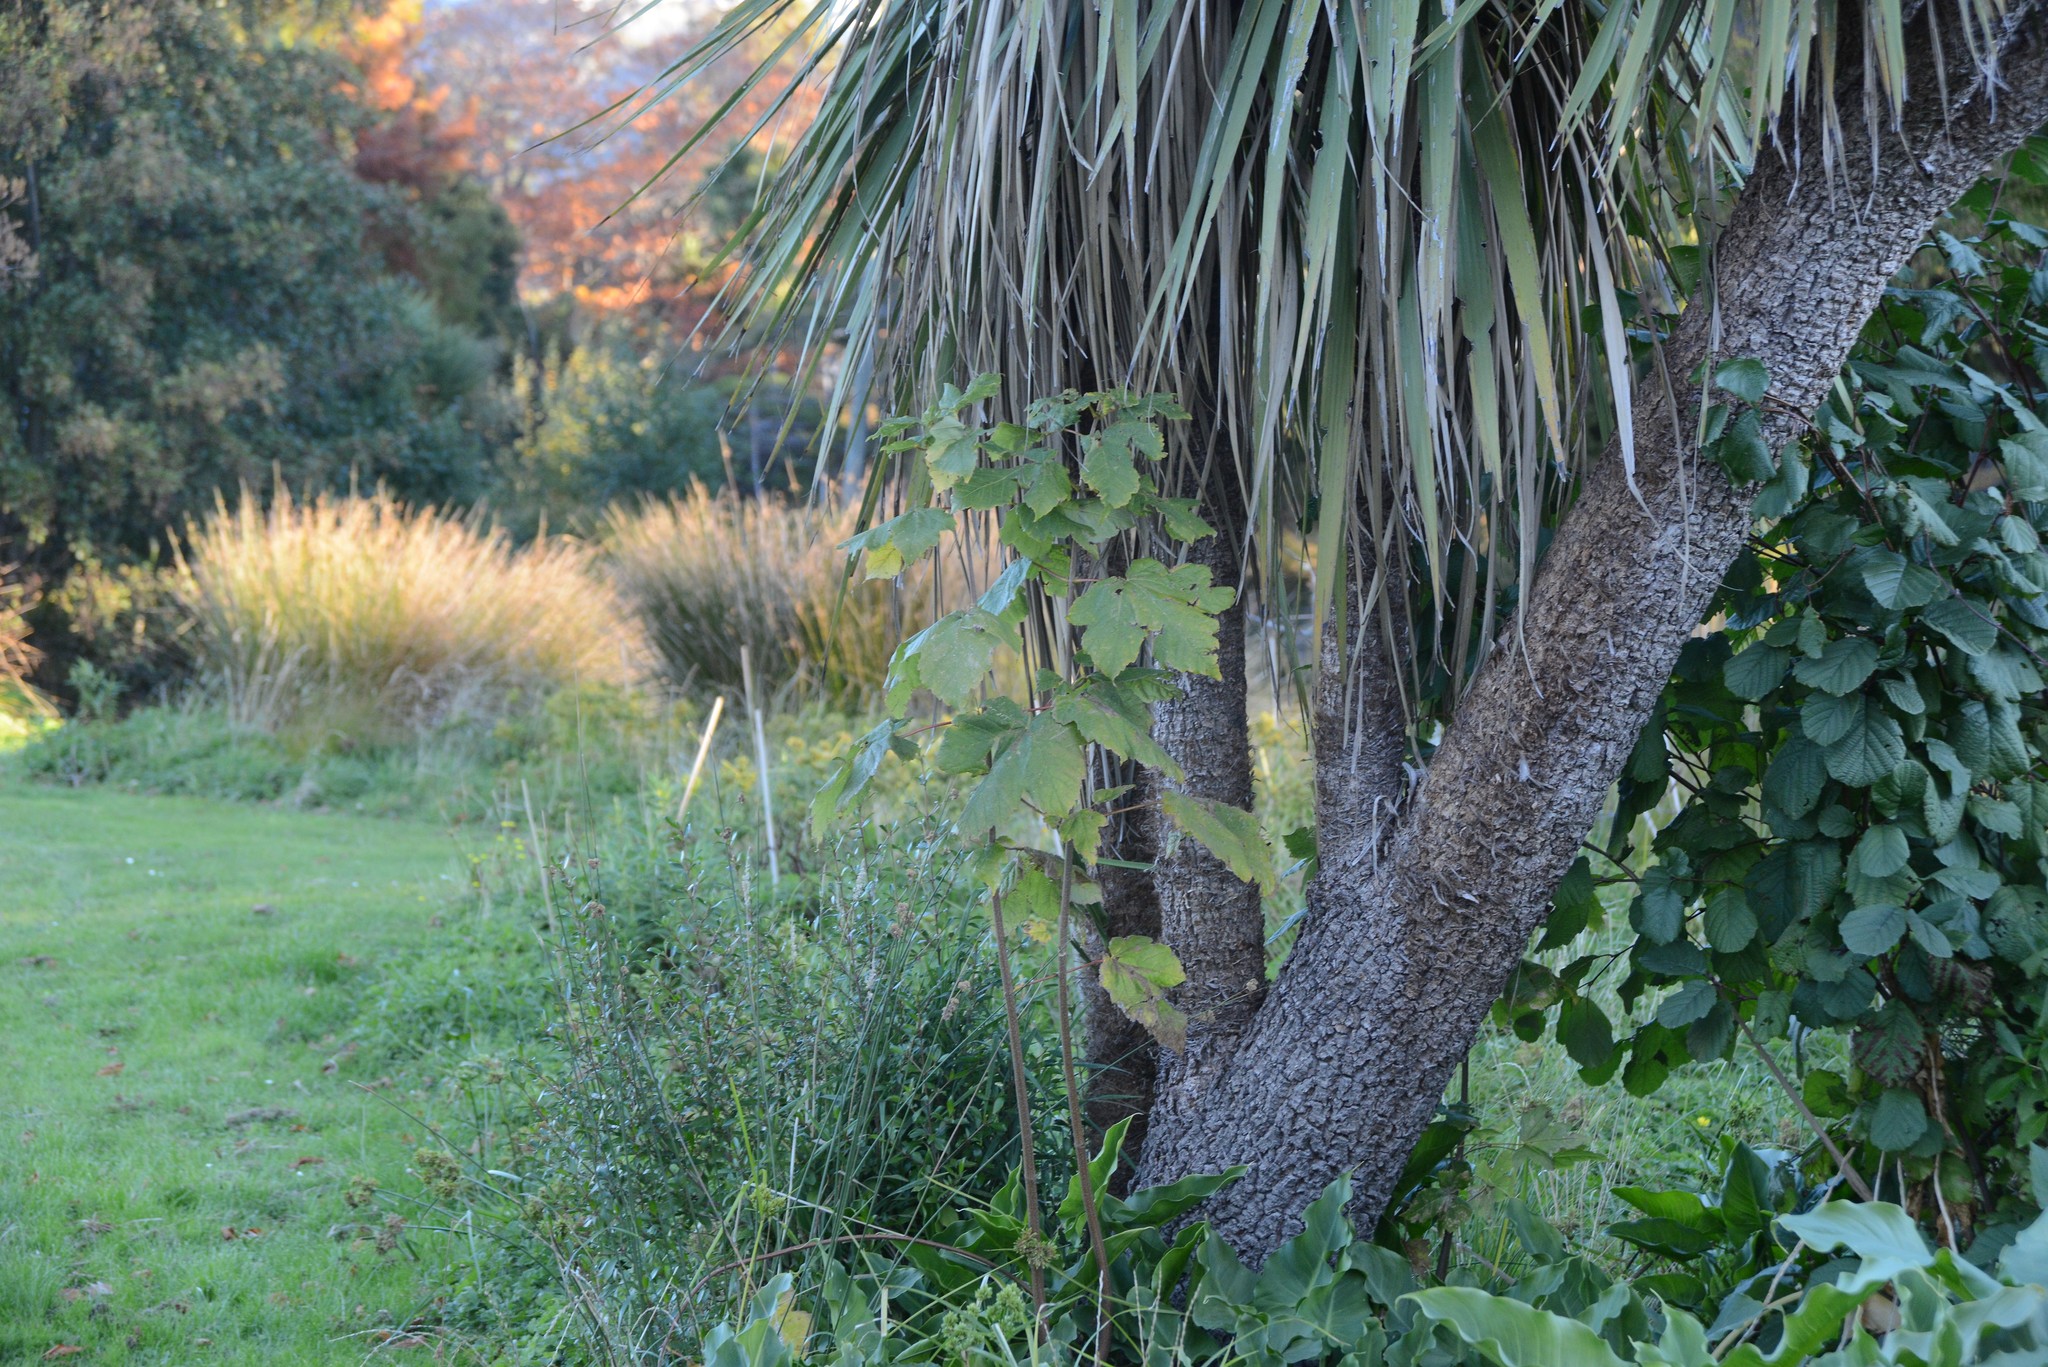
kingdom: Plantae
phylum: Tracheophyta
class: Magnoliopsida
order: Sapindales
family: Sapindaceae
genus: Acer
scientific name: Acer pseudoplatanus
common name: Sycamore
